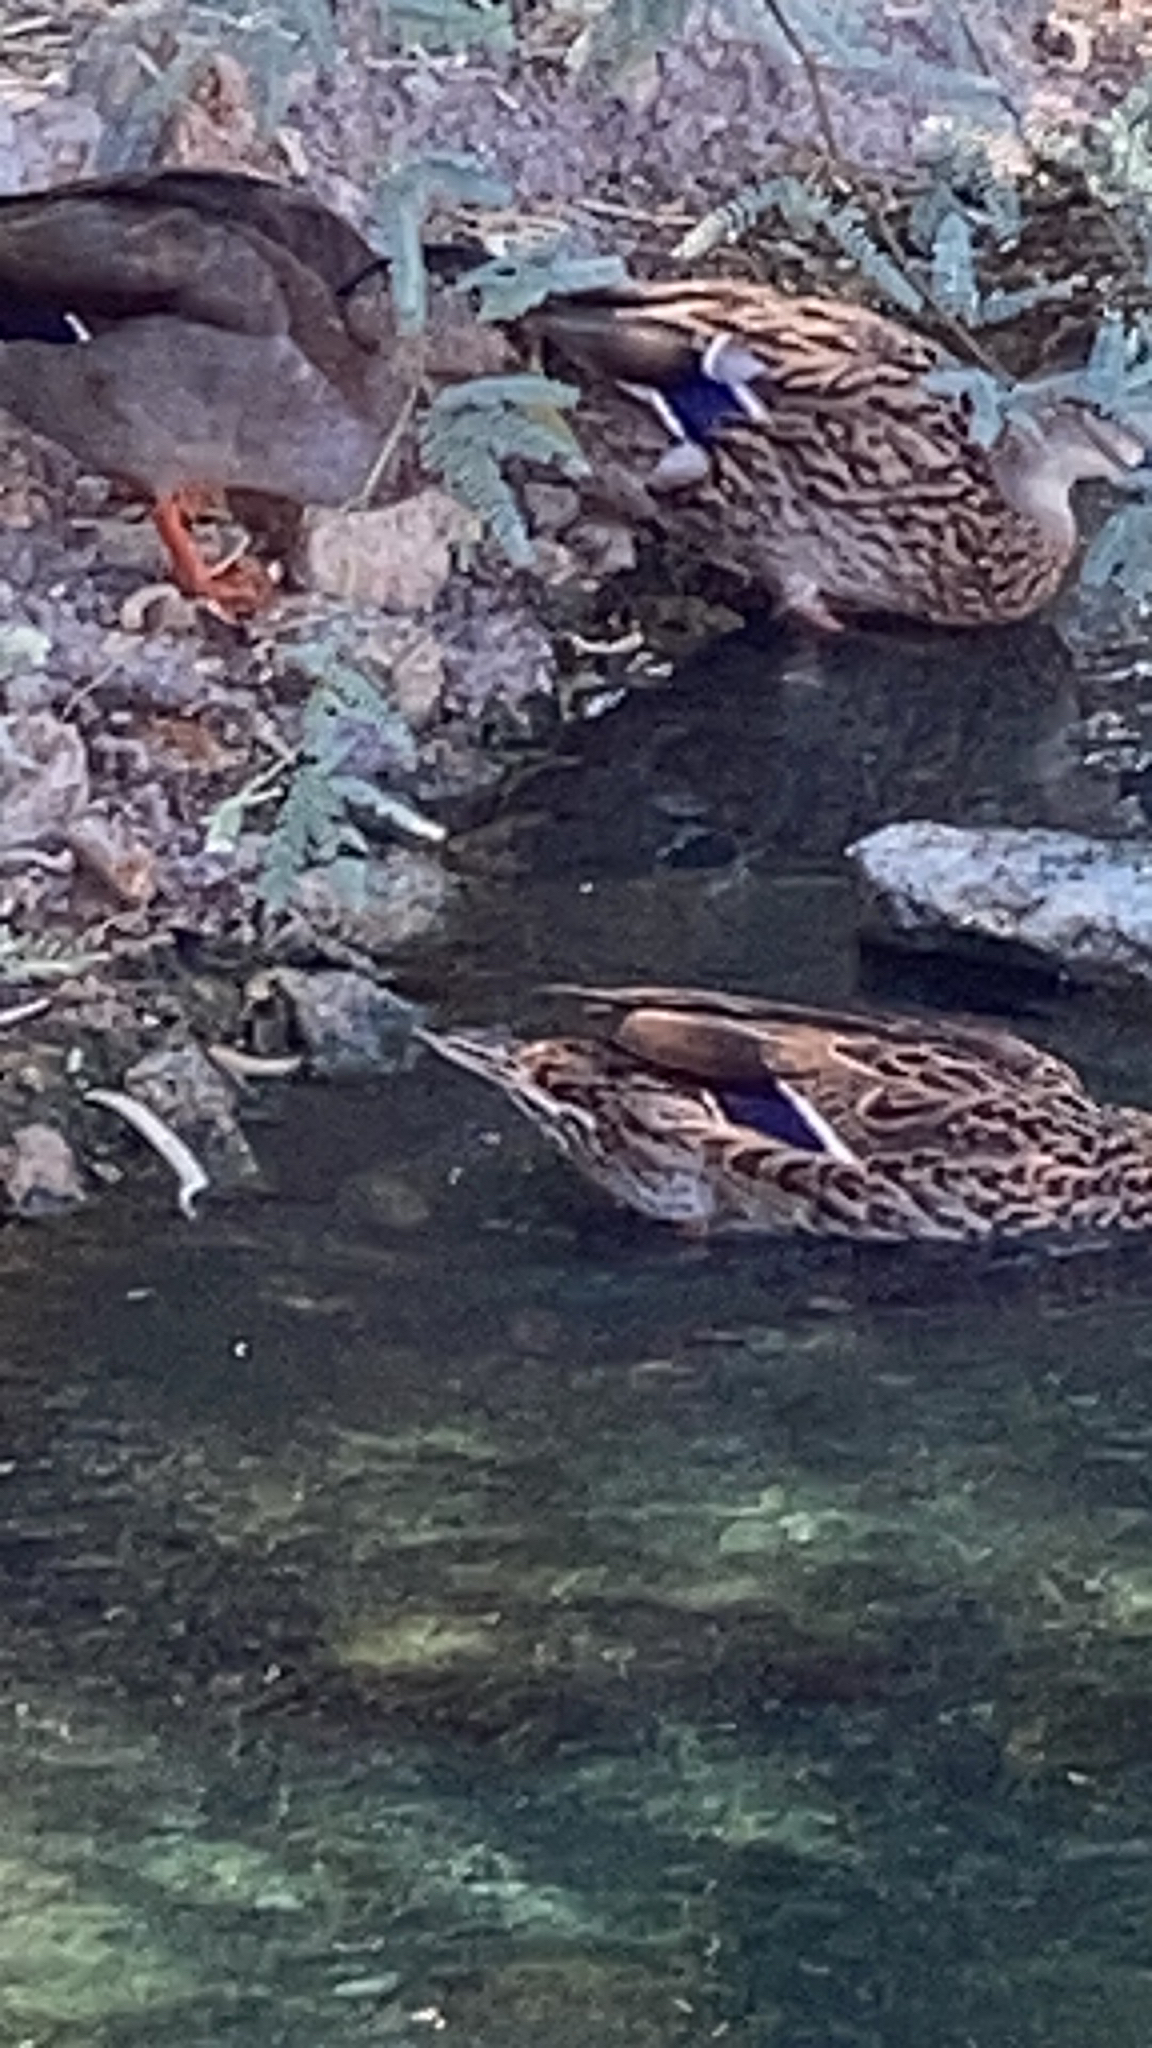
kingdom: Animalia
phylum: Chordata
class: Aves
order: Anseriformes
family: Anatidae
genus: Anas
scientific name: Anas platyrhynchos
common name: Mallard
